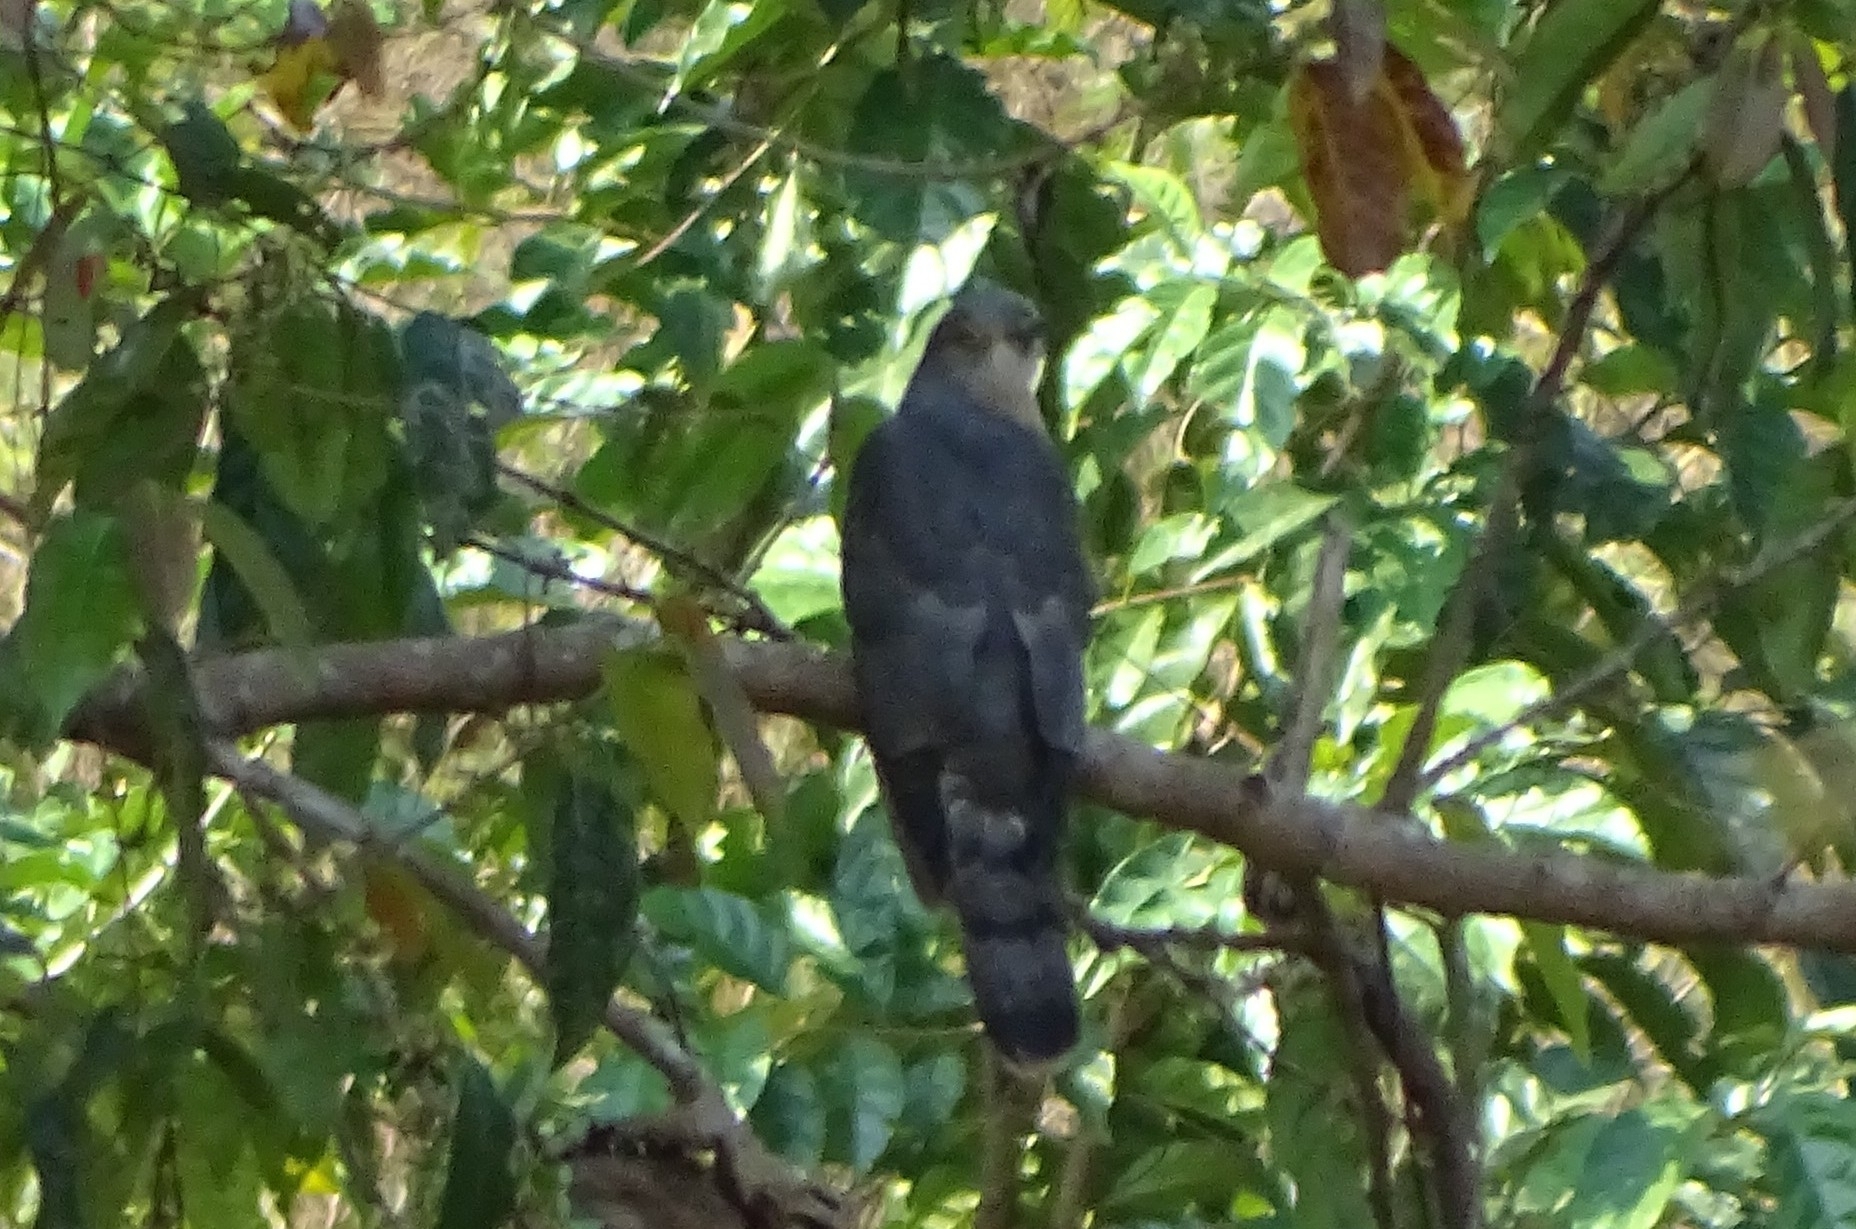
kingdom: Animalia
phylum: Chordata
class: Aves
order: Cuculiformes
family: Cuculidae
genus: Cuculus
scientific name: Cuculus varius
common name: Common hawk cuckoo
